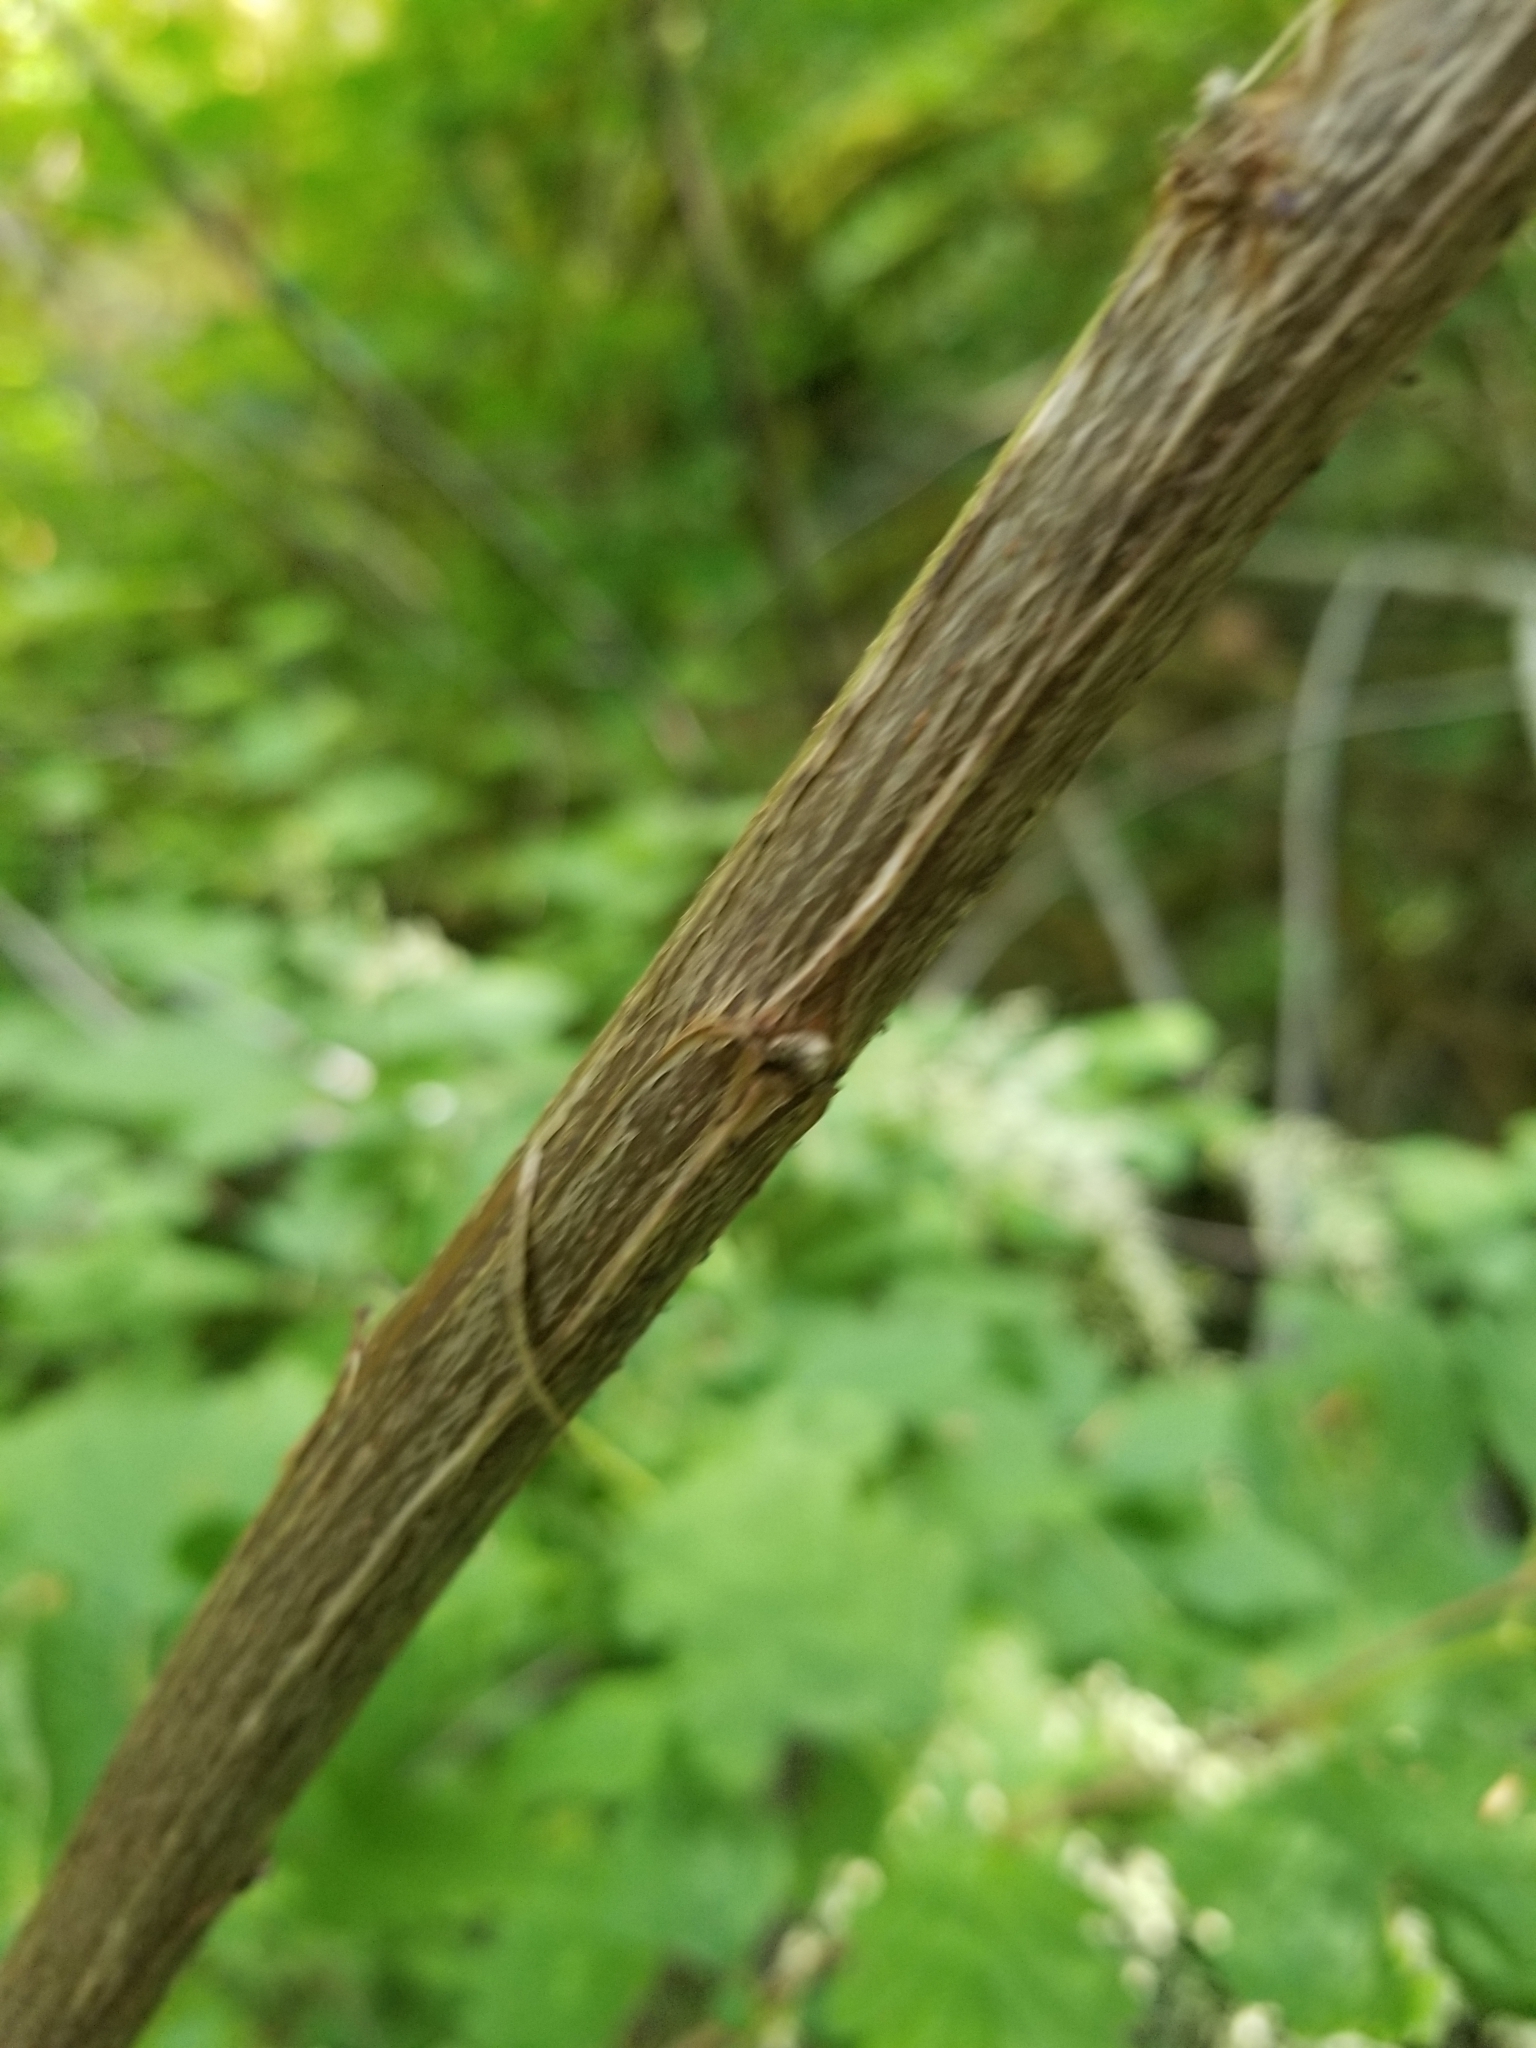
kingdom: Plantae
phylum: Tracheophyta
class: Magnoliopsida
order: Rosales
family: Rosaceae
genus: Holodiscus
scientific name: Holodiscus discolor
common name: Oceanspray
